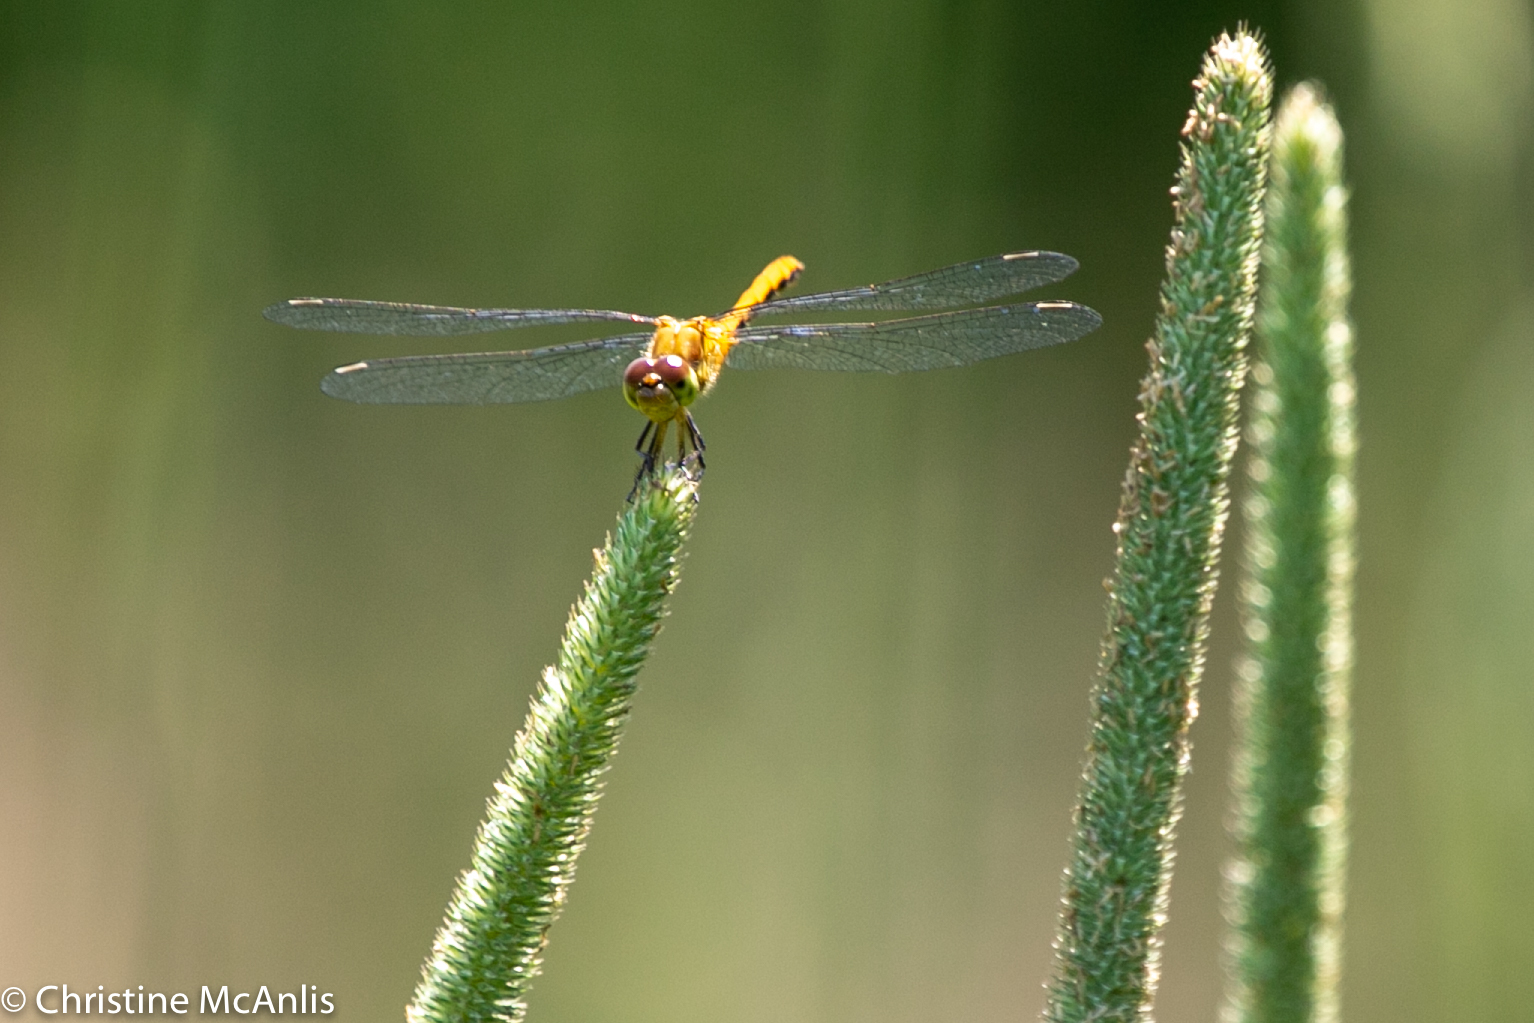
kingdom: Animalia
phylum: Arthropoda
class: Insecta
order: Odonata
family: Libellulidae
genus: Sympetrum
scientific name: Sympetrum
